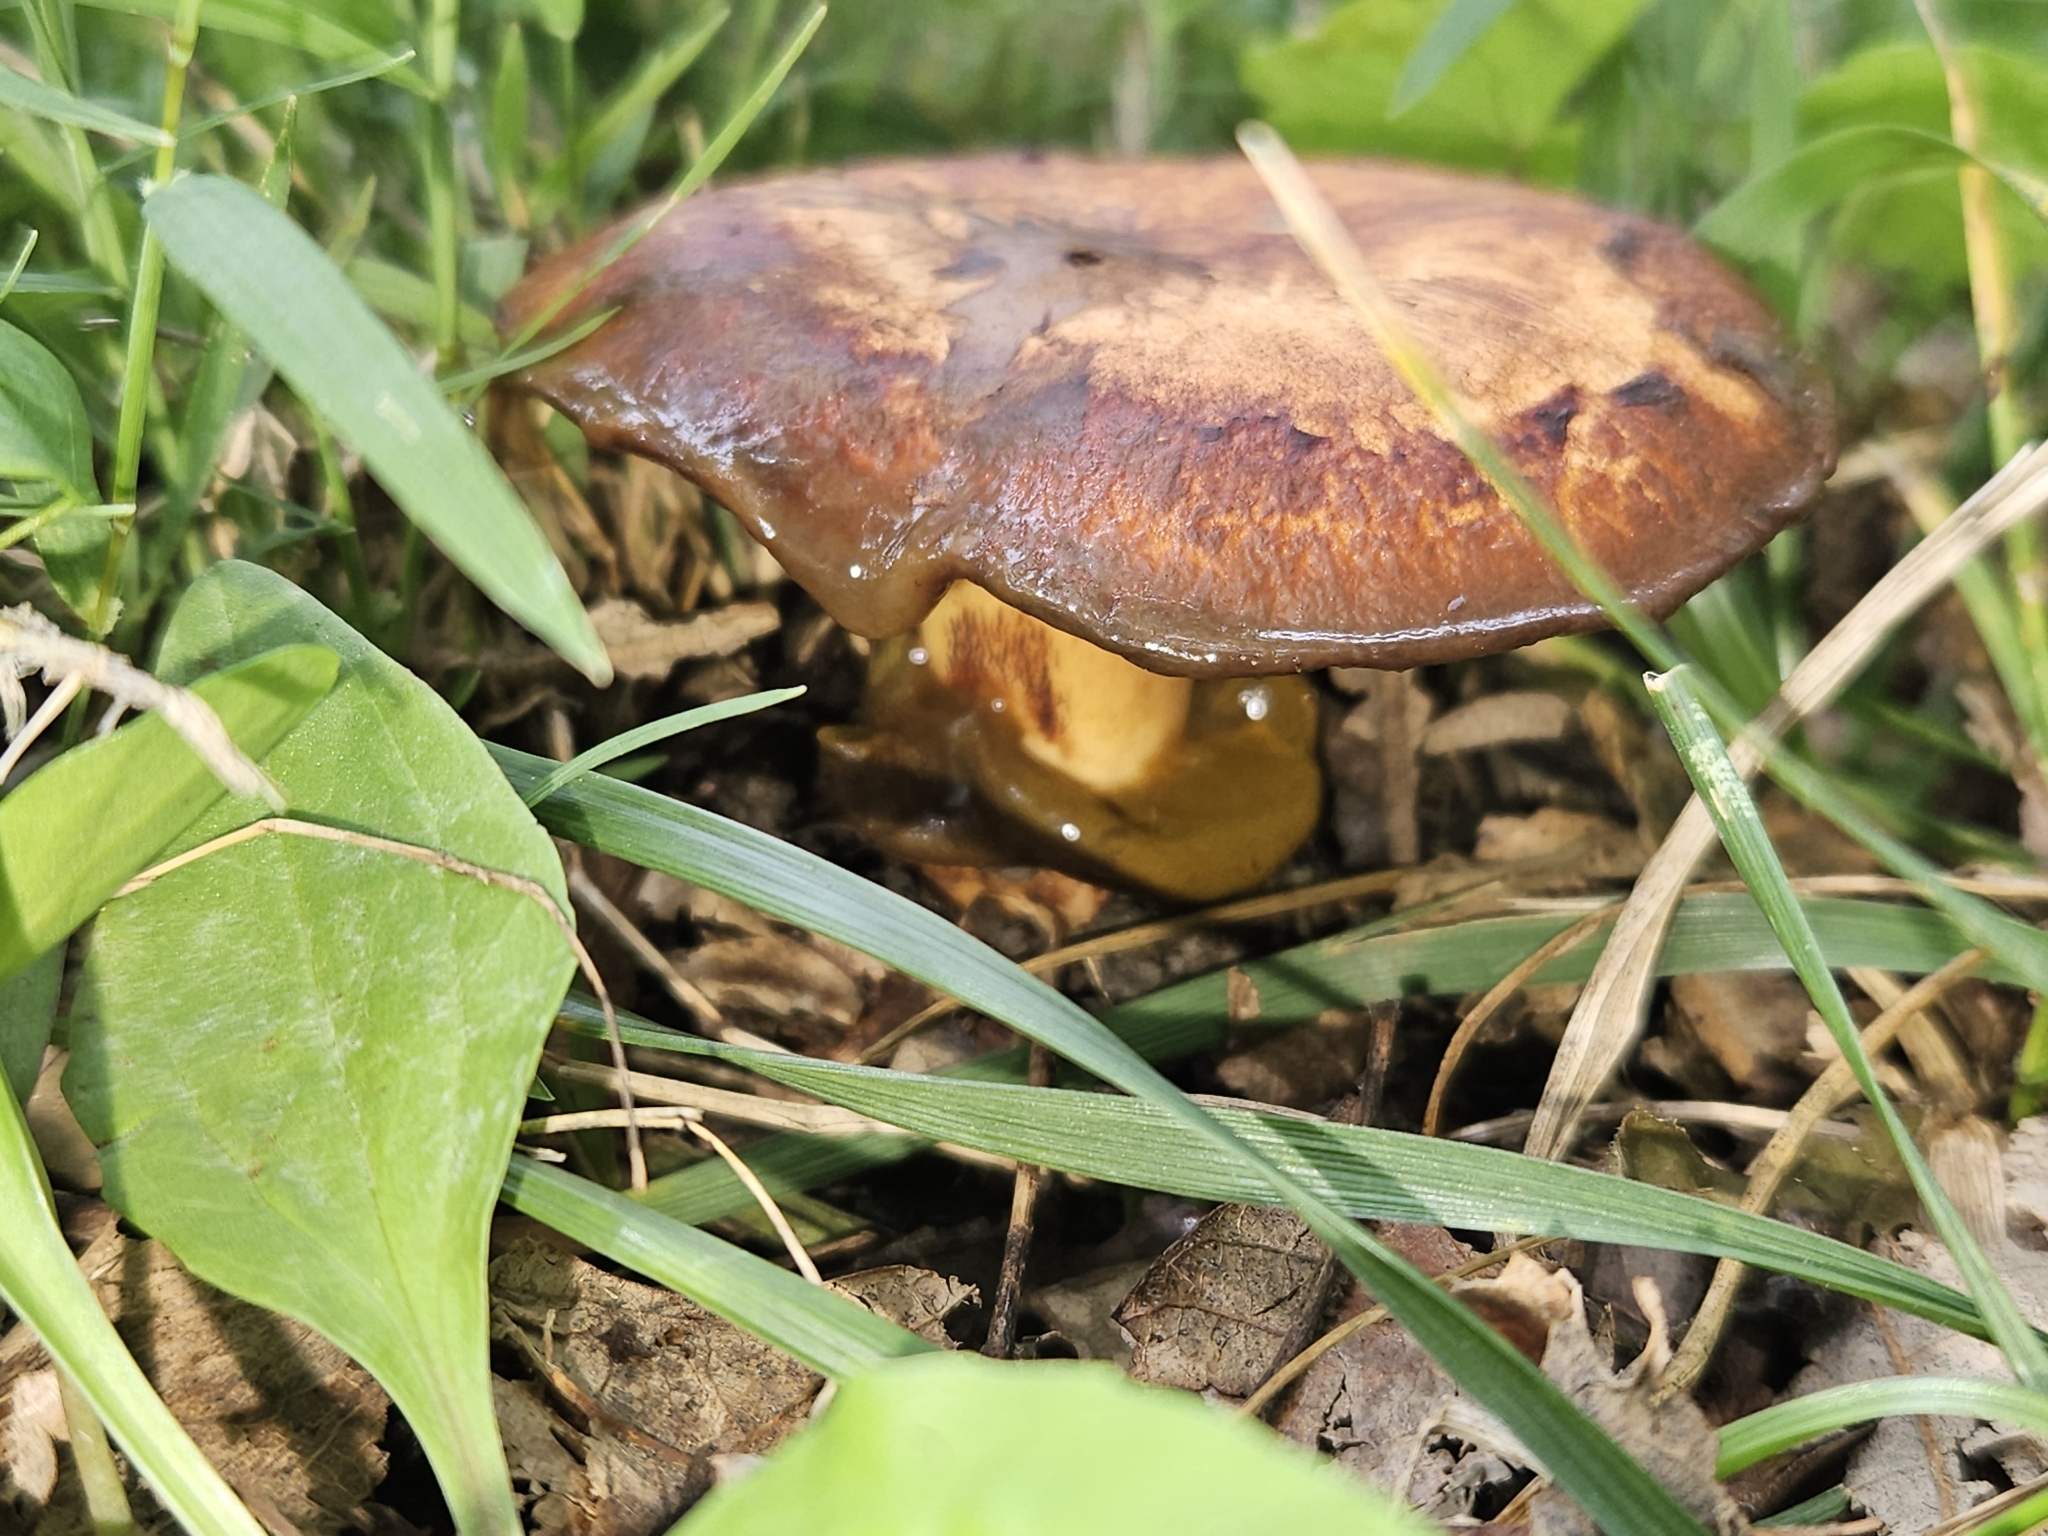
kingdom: Fungi
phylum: Basidiomycota
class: Agaricomycetes
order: Boletales
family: Paxillaceae
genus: Paragyrodon
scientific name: Paragyrodon sphaerosporus
